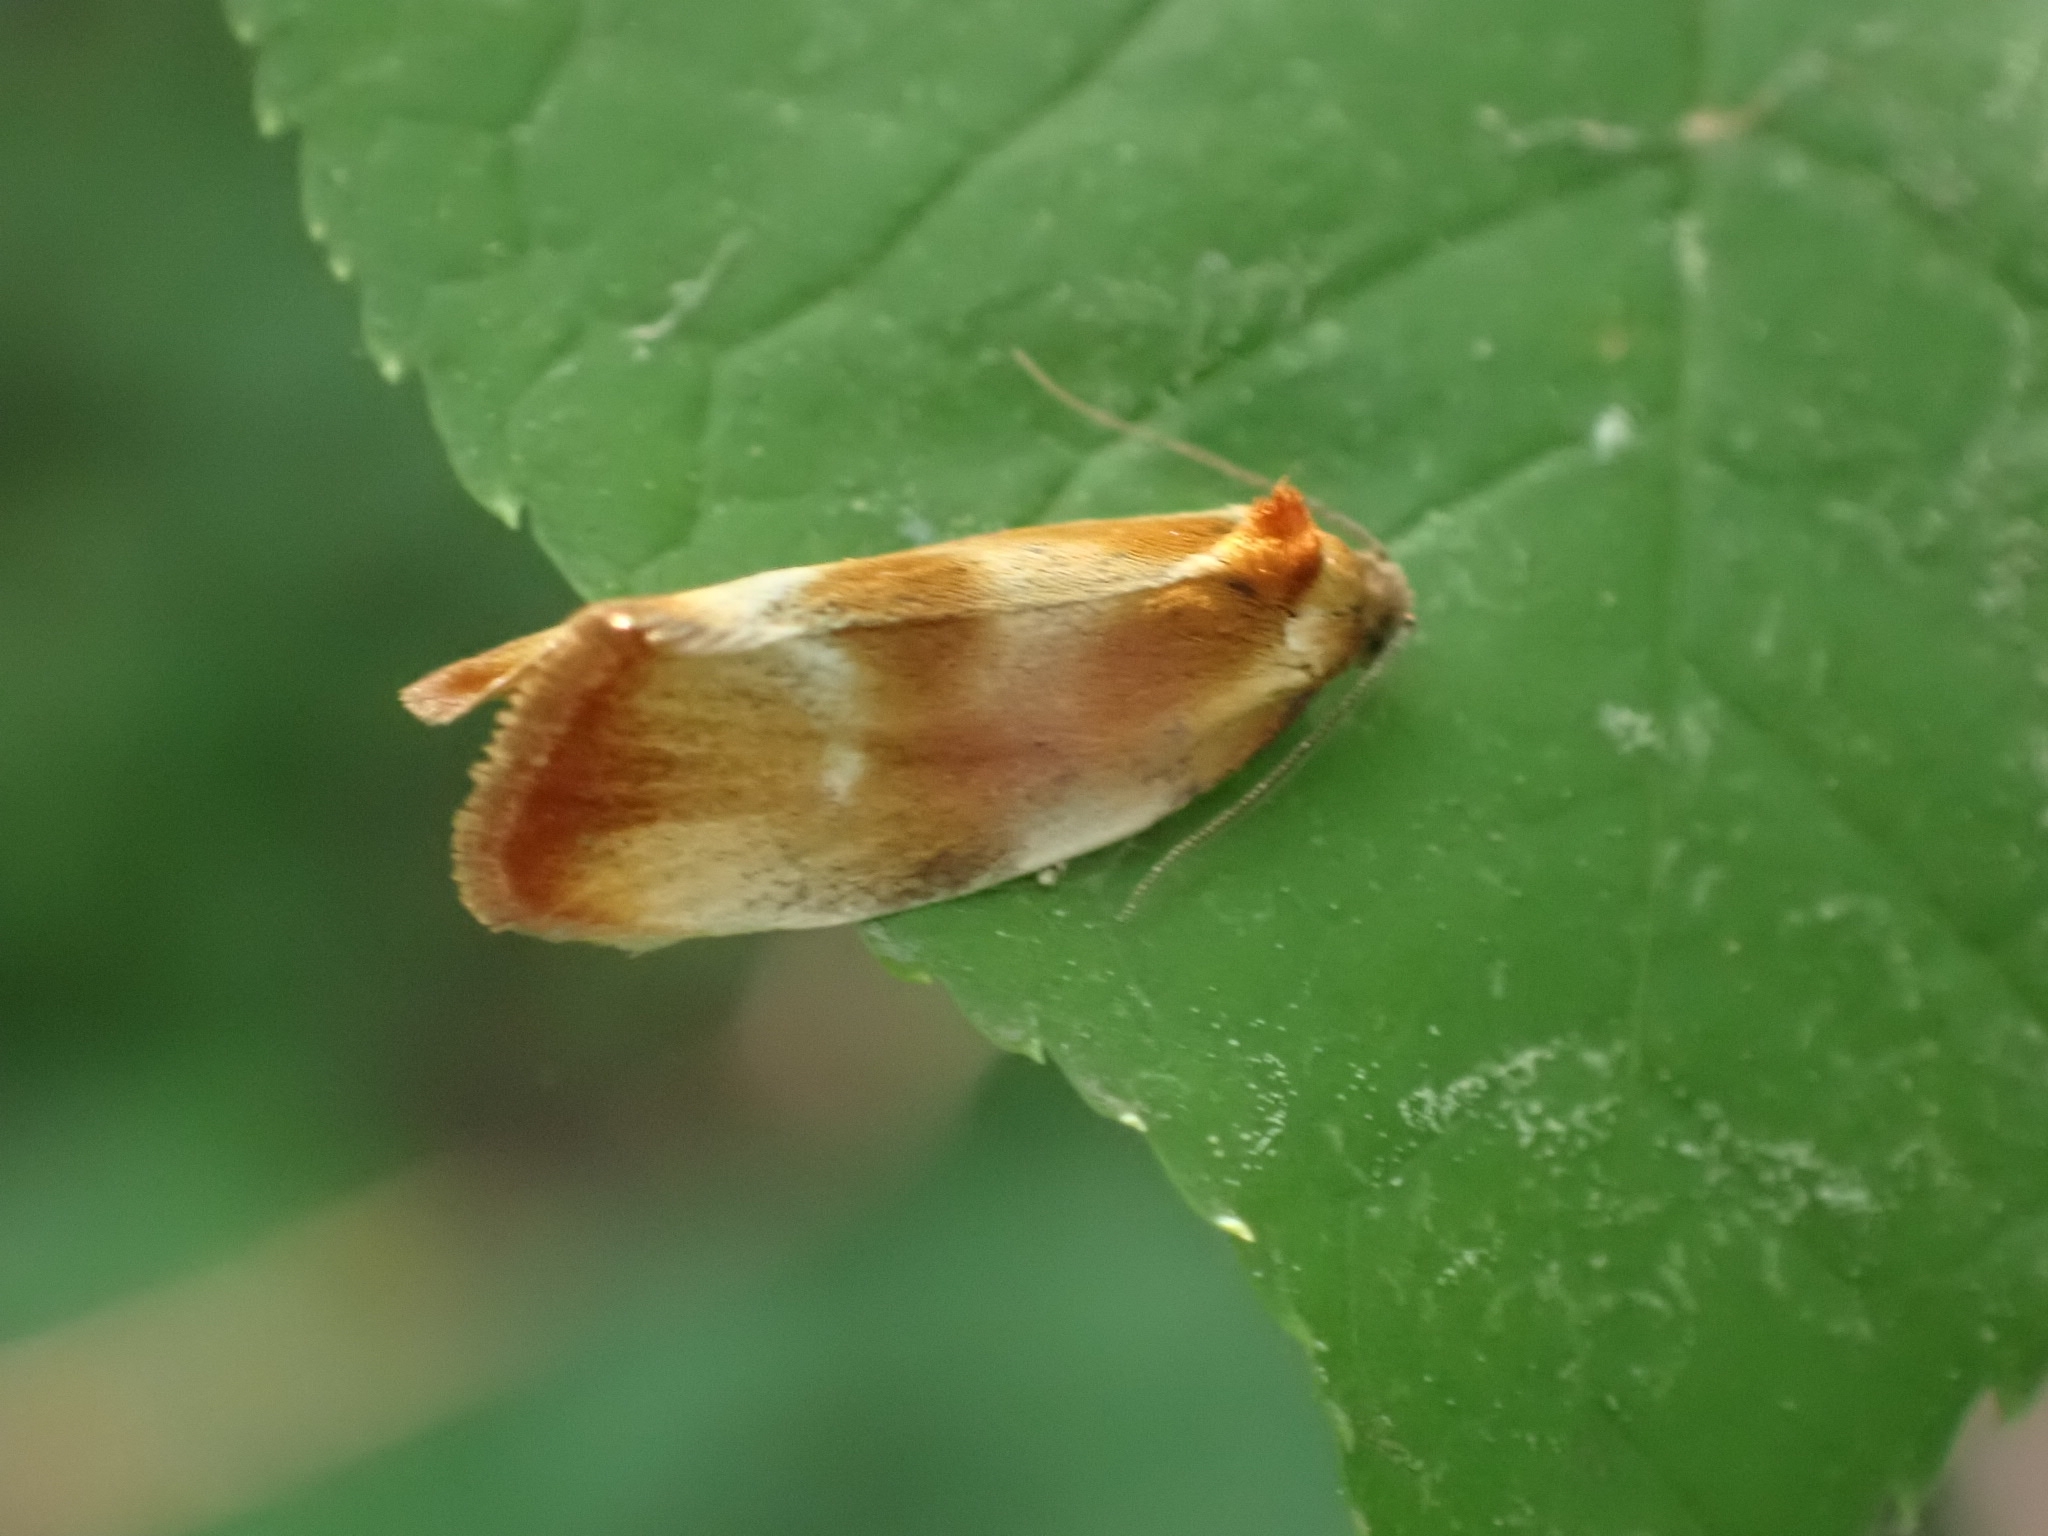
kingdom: Animalia
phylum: Arthropoda
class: Insecta
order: Lepidoptera
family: Tortricidae
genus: Eulia
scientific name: Eulia ministrana
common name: Brassy twist
